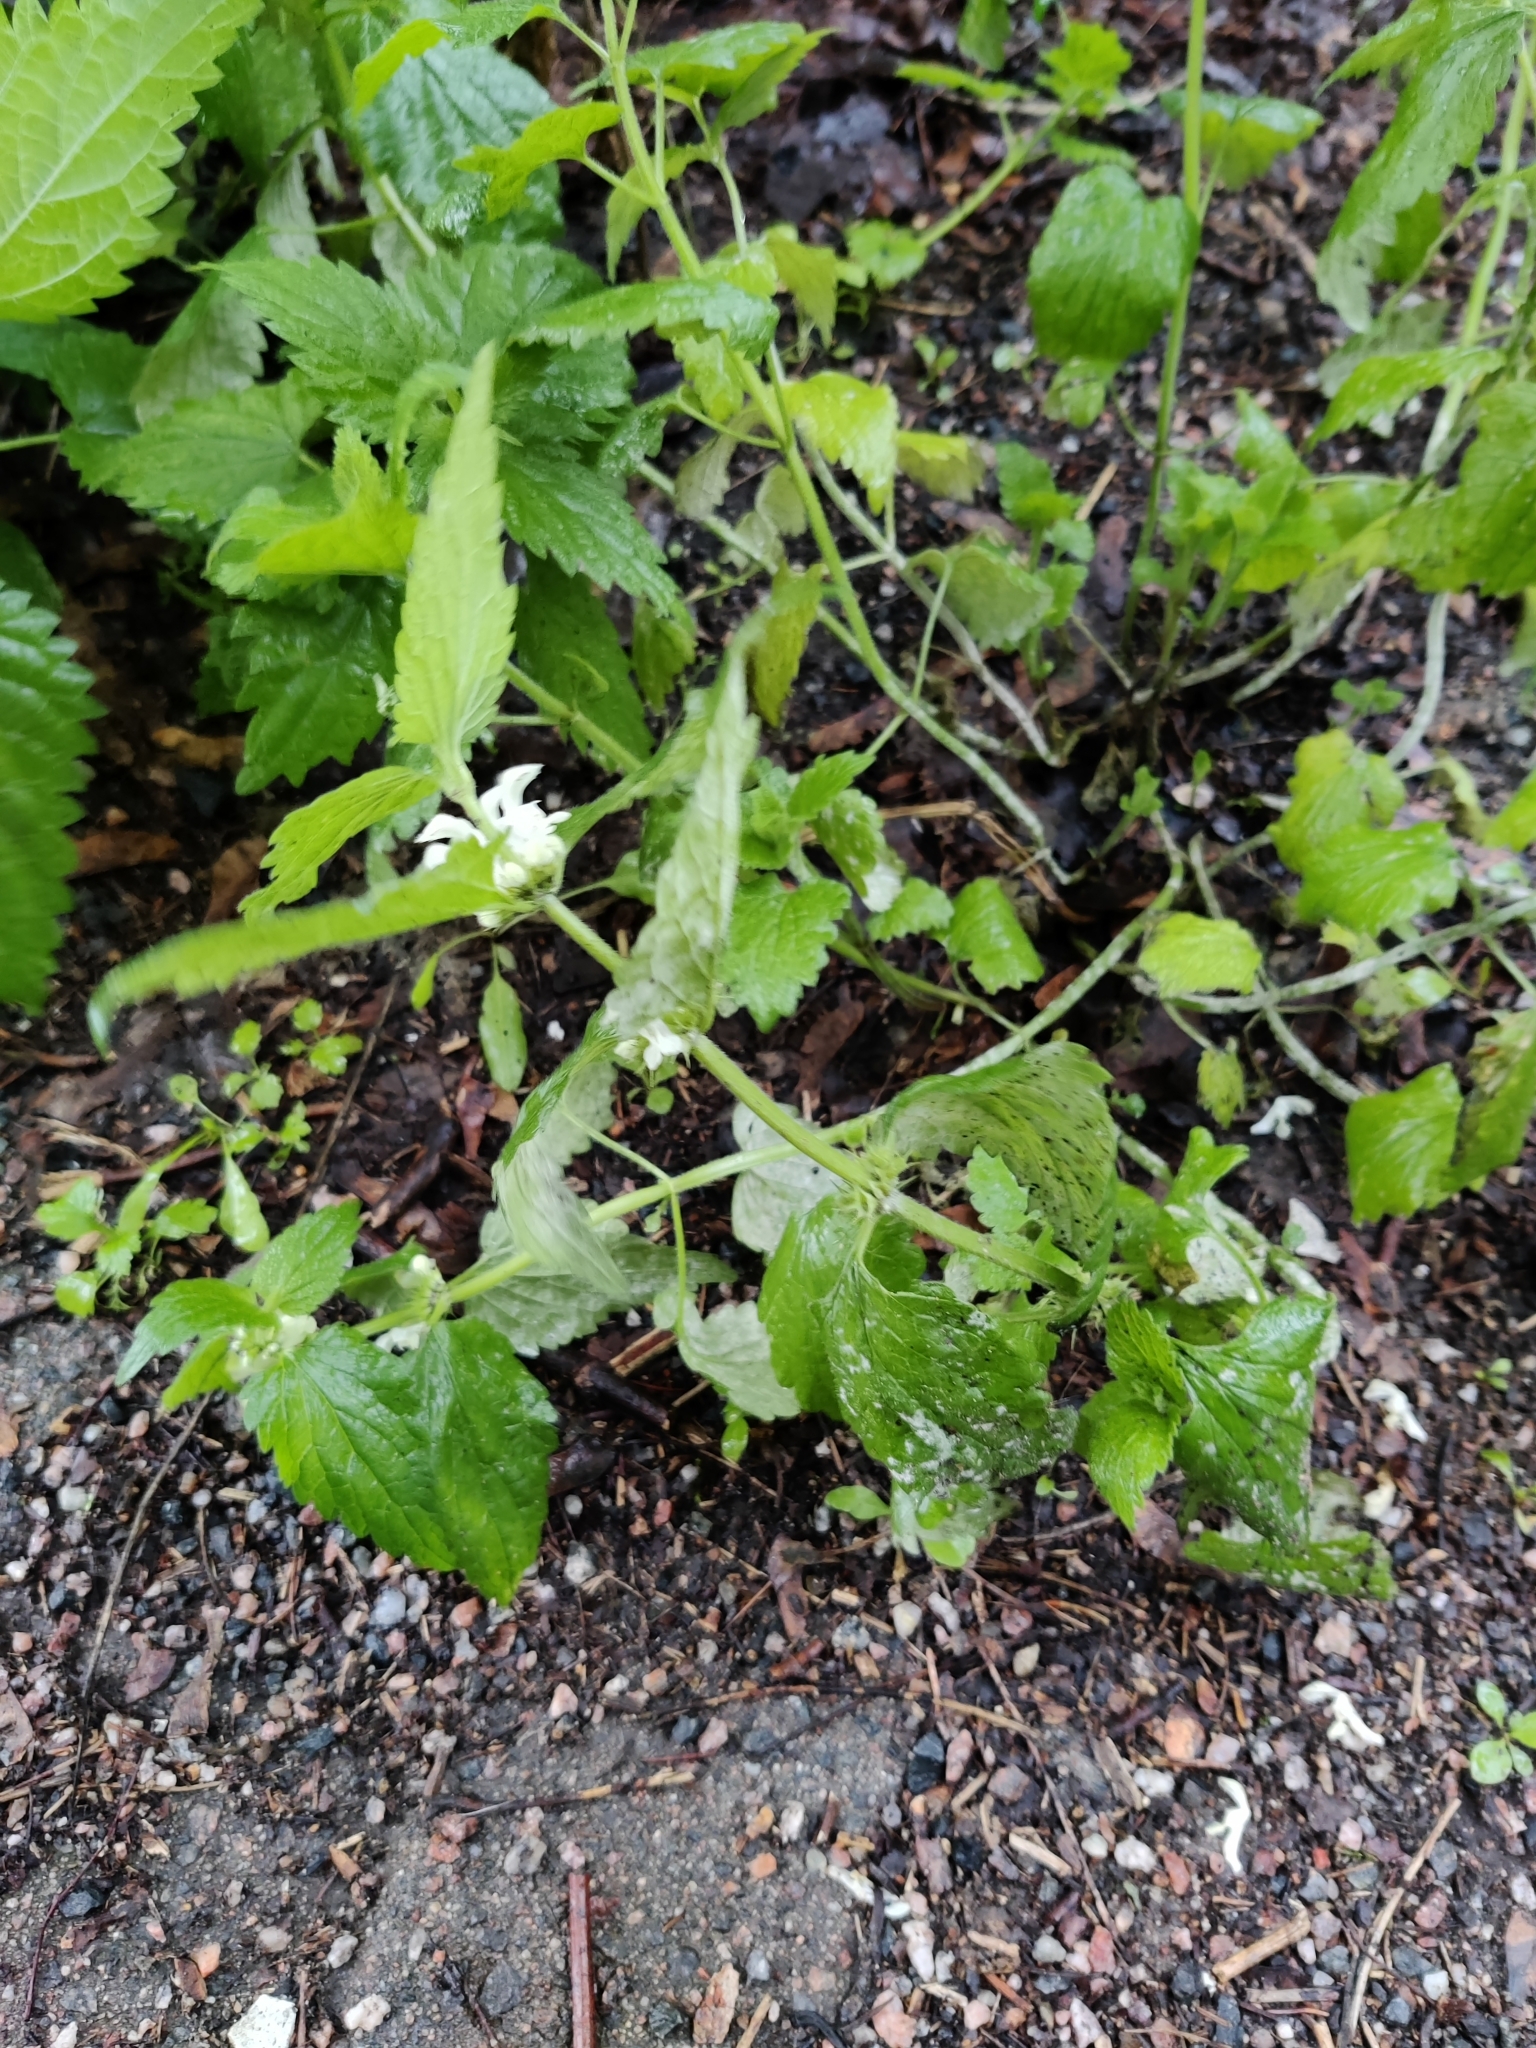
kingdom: Plantae
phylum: Tracheophyta
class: Magnoliopsida
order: Lamiales
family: Lamiaceae
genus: Lamium
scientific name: Lamium album
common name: White dead-nettle
